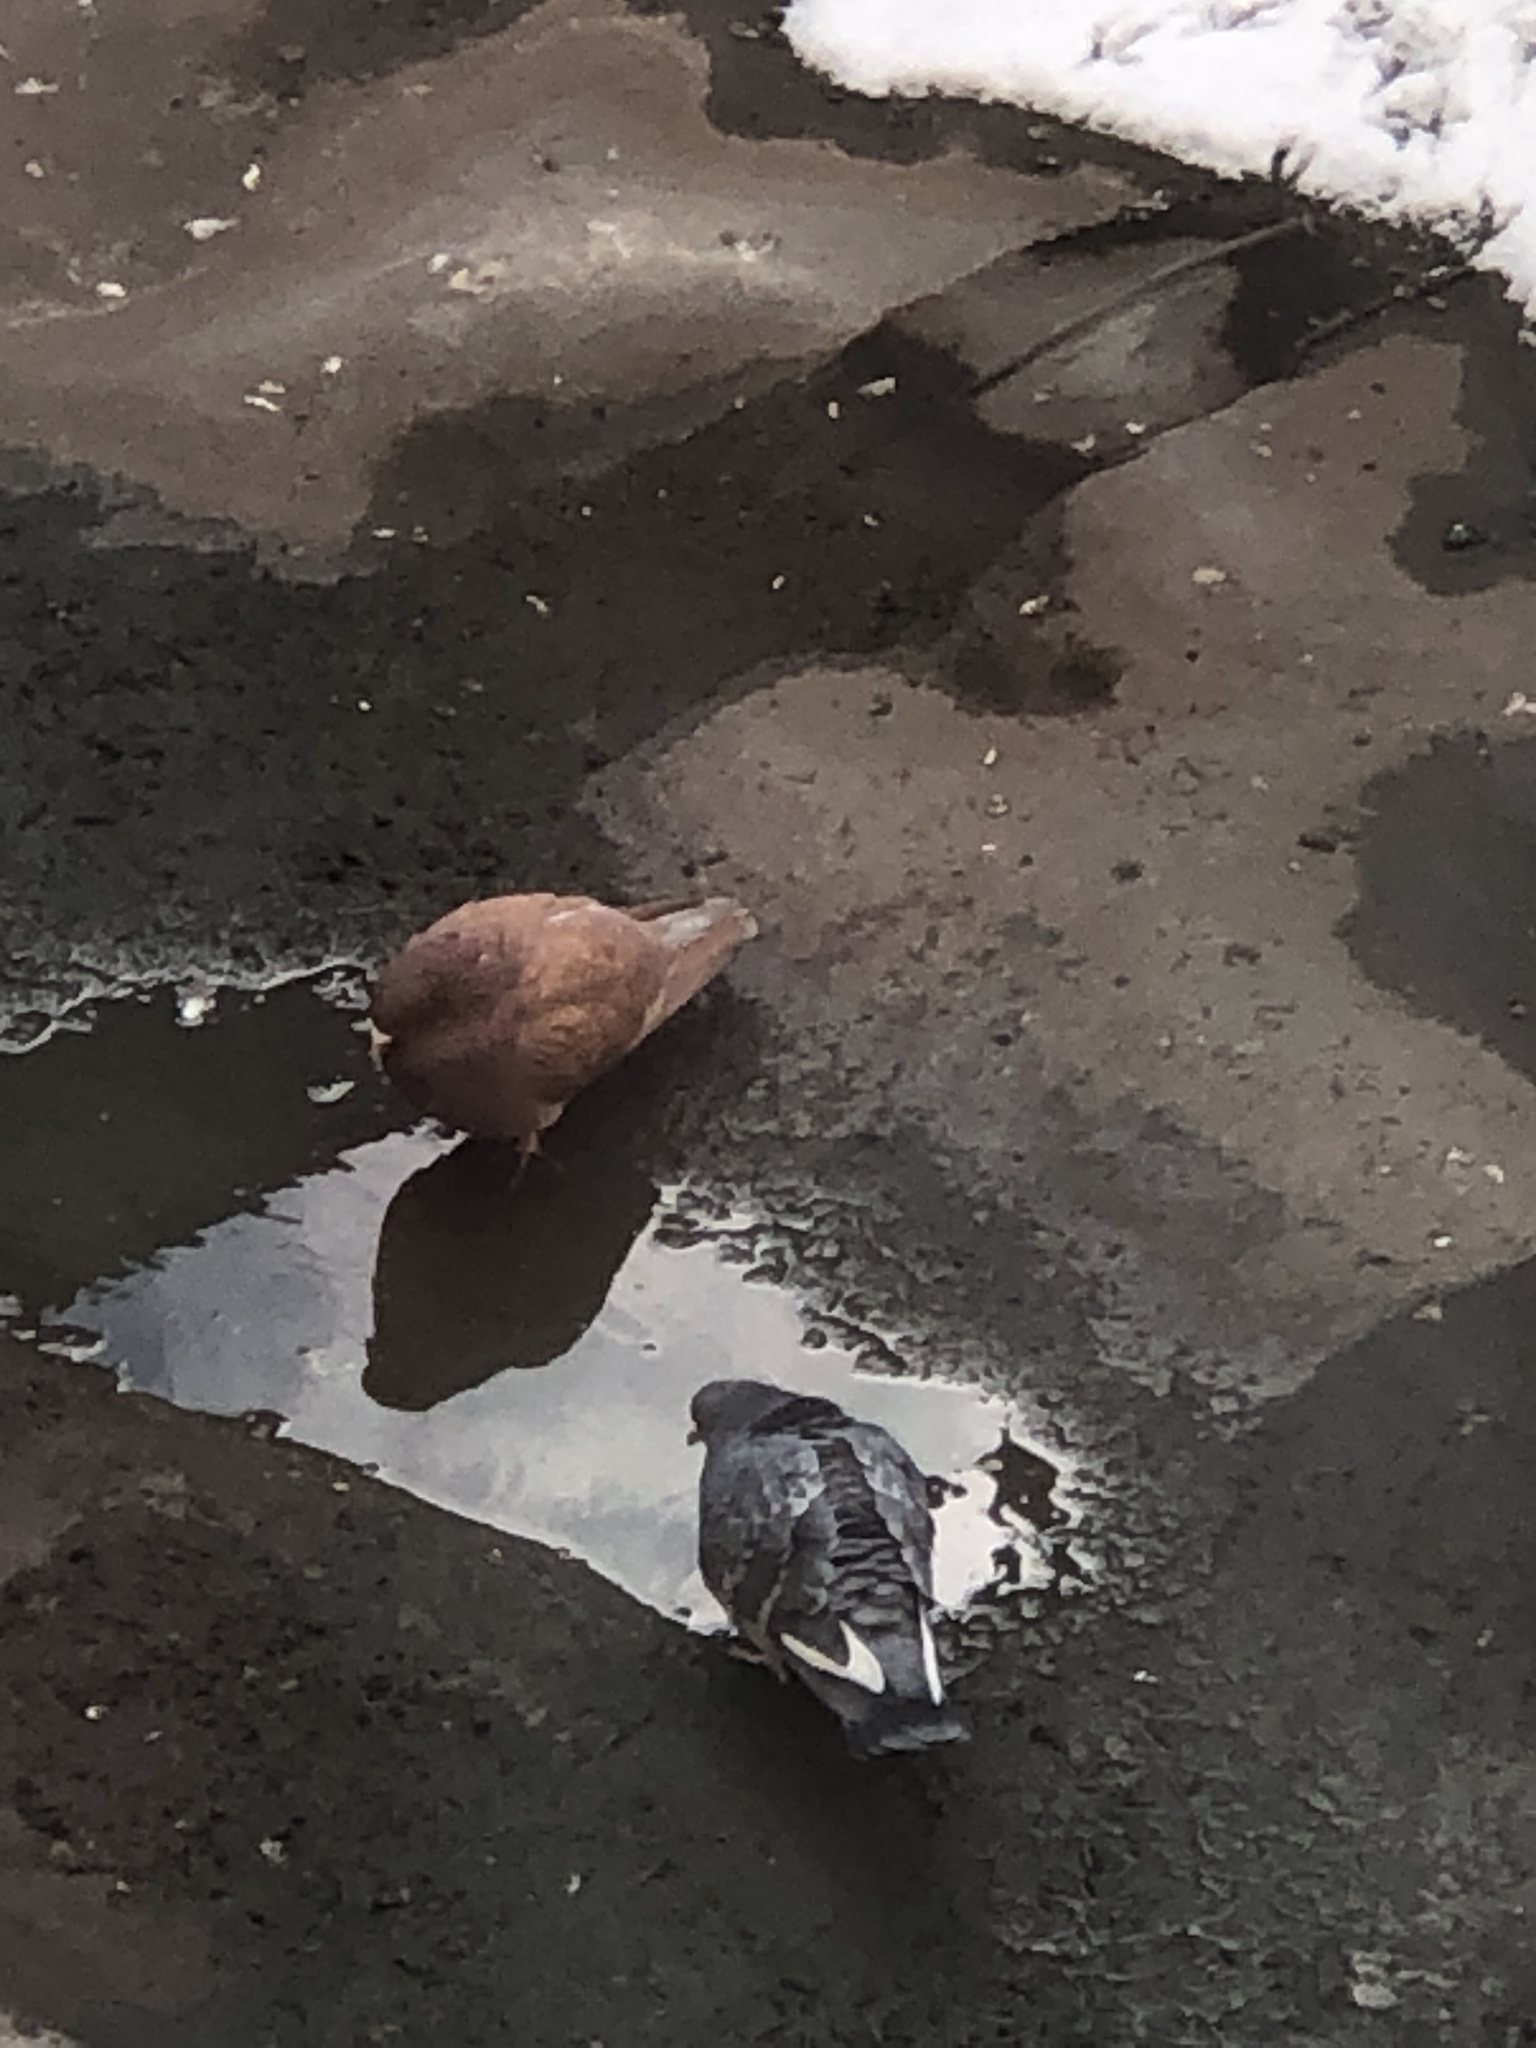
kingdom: Animalia
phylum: Chordata
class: Aves
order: Columbiformes
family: Columbidae
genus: Columba
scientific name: Columba livia
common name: Rock pigeon
